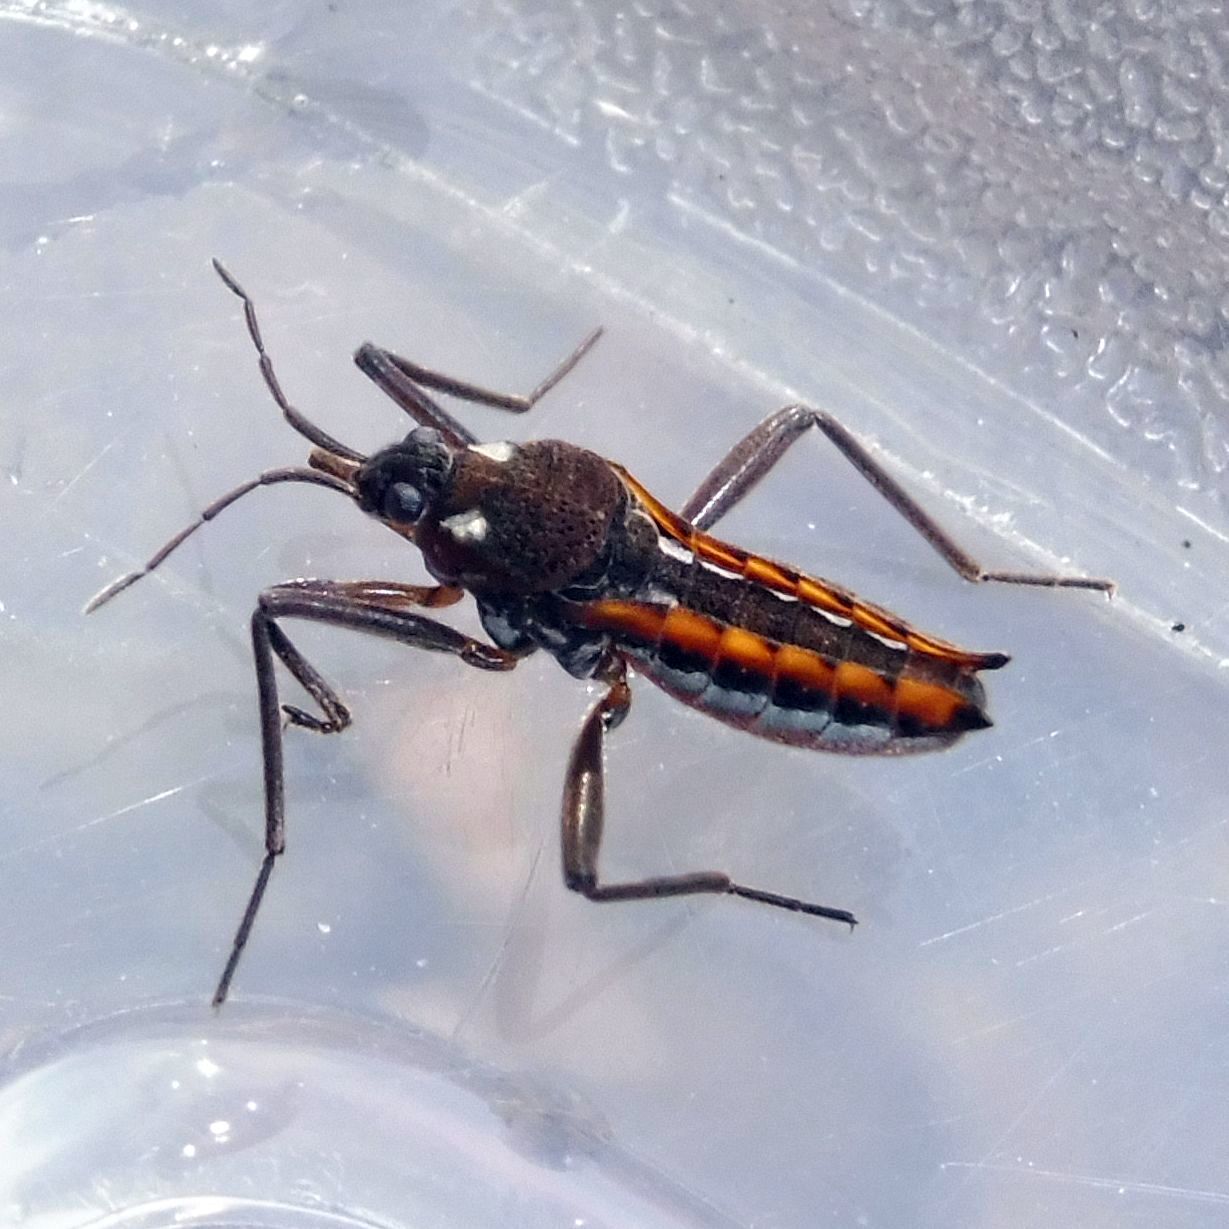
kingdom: Animalia
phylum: Arthropoda
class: Insecta
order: Hemiptera
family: Veliidae
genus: Velia
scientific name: Velia caprai
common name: Water cricket
